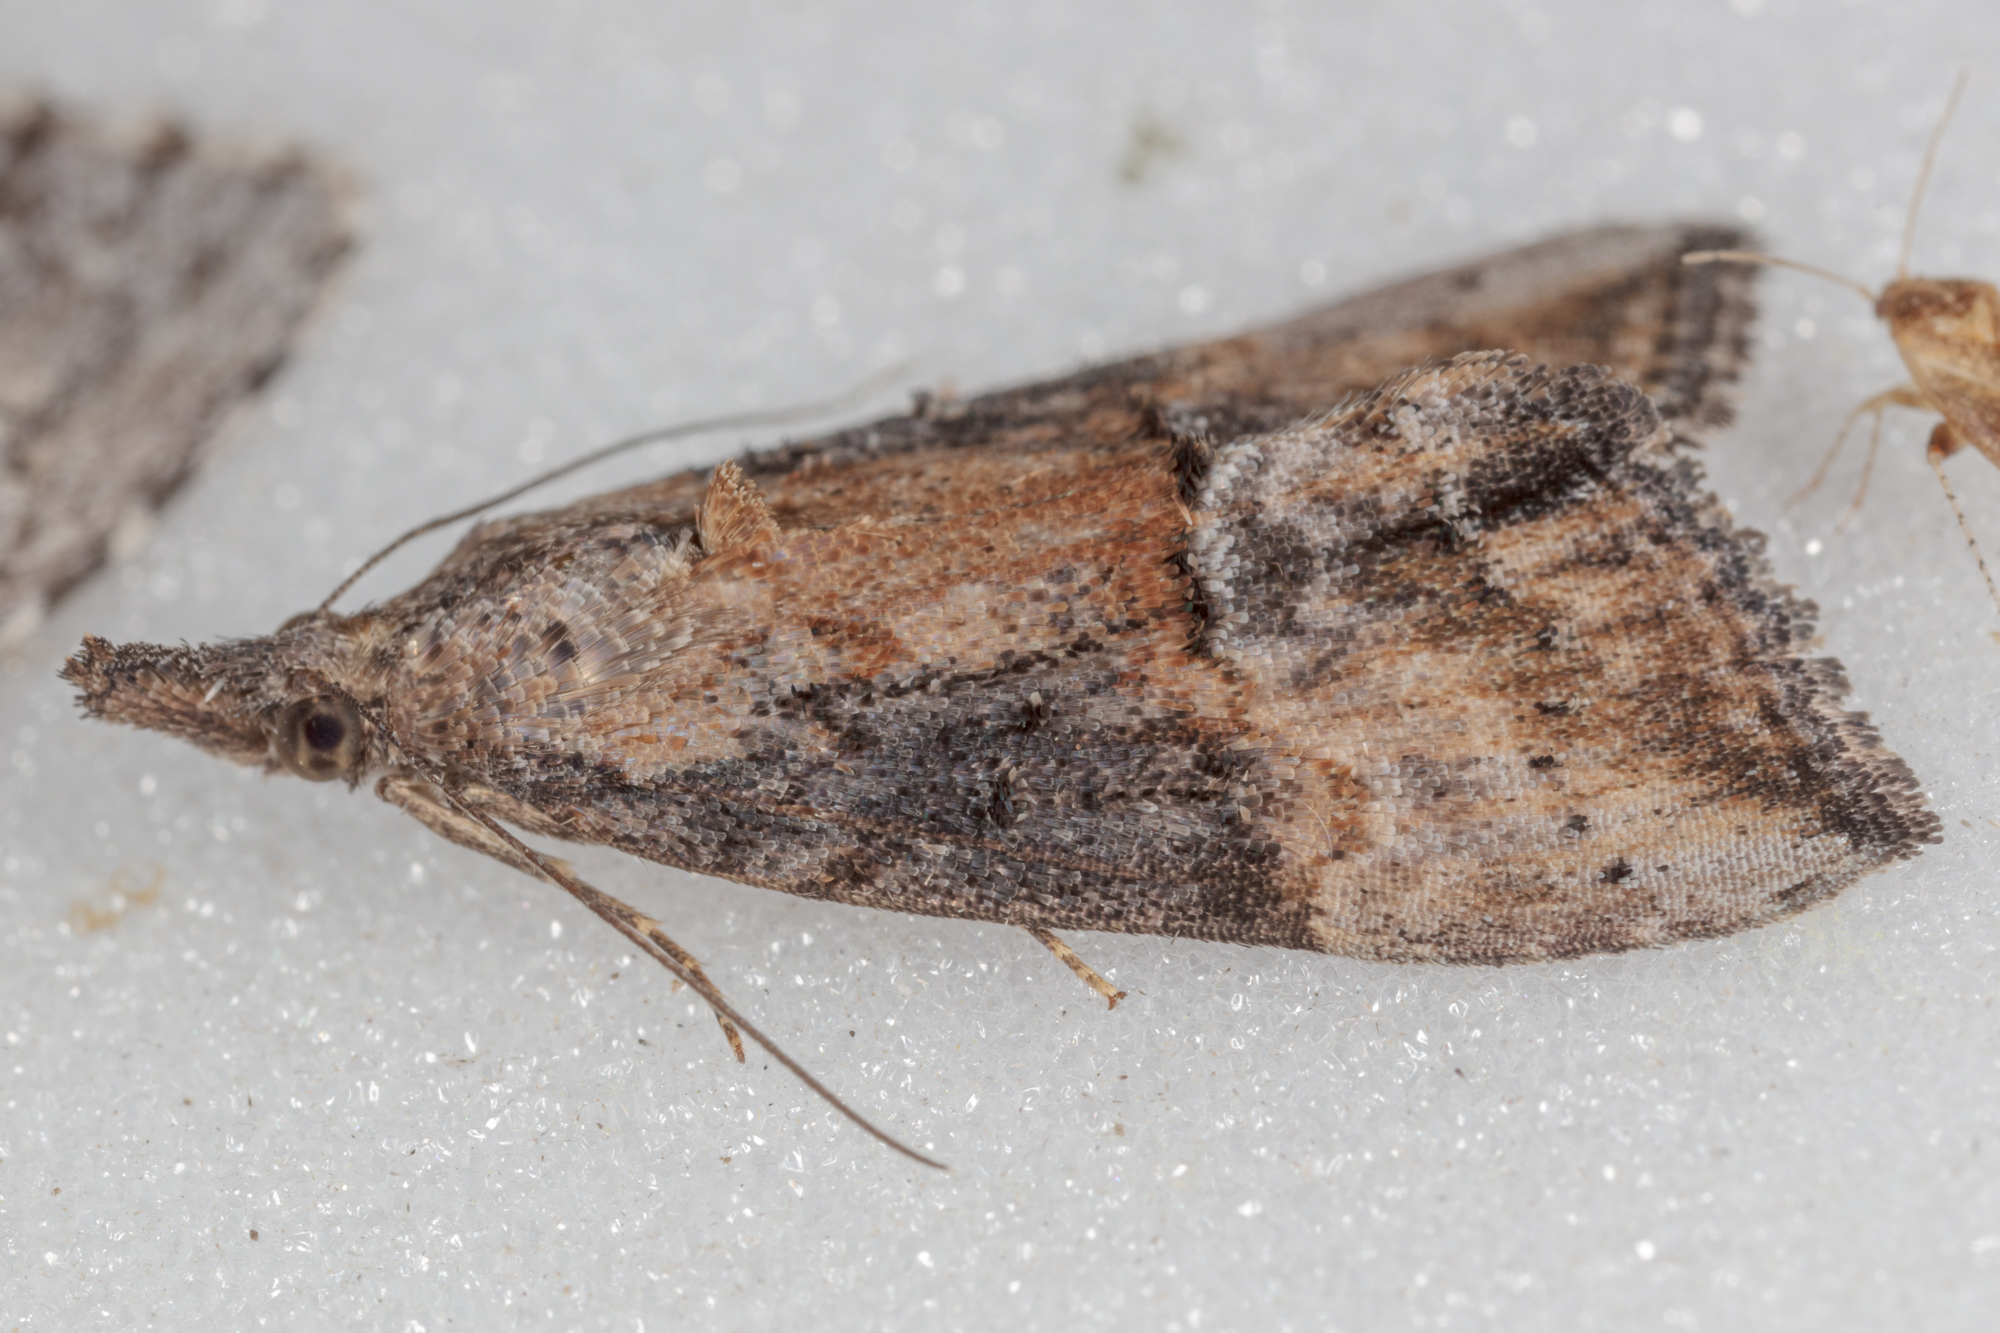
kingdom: Animalia
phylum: Arthropoda
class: Insecta
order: Lepidoptera
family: Erebidae
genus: Hypena
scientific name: Hypena scabra
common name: Green cloverworm
